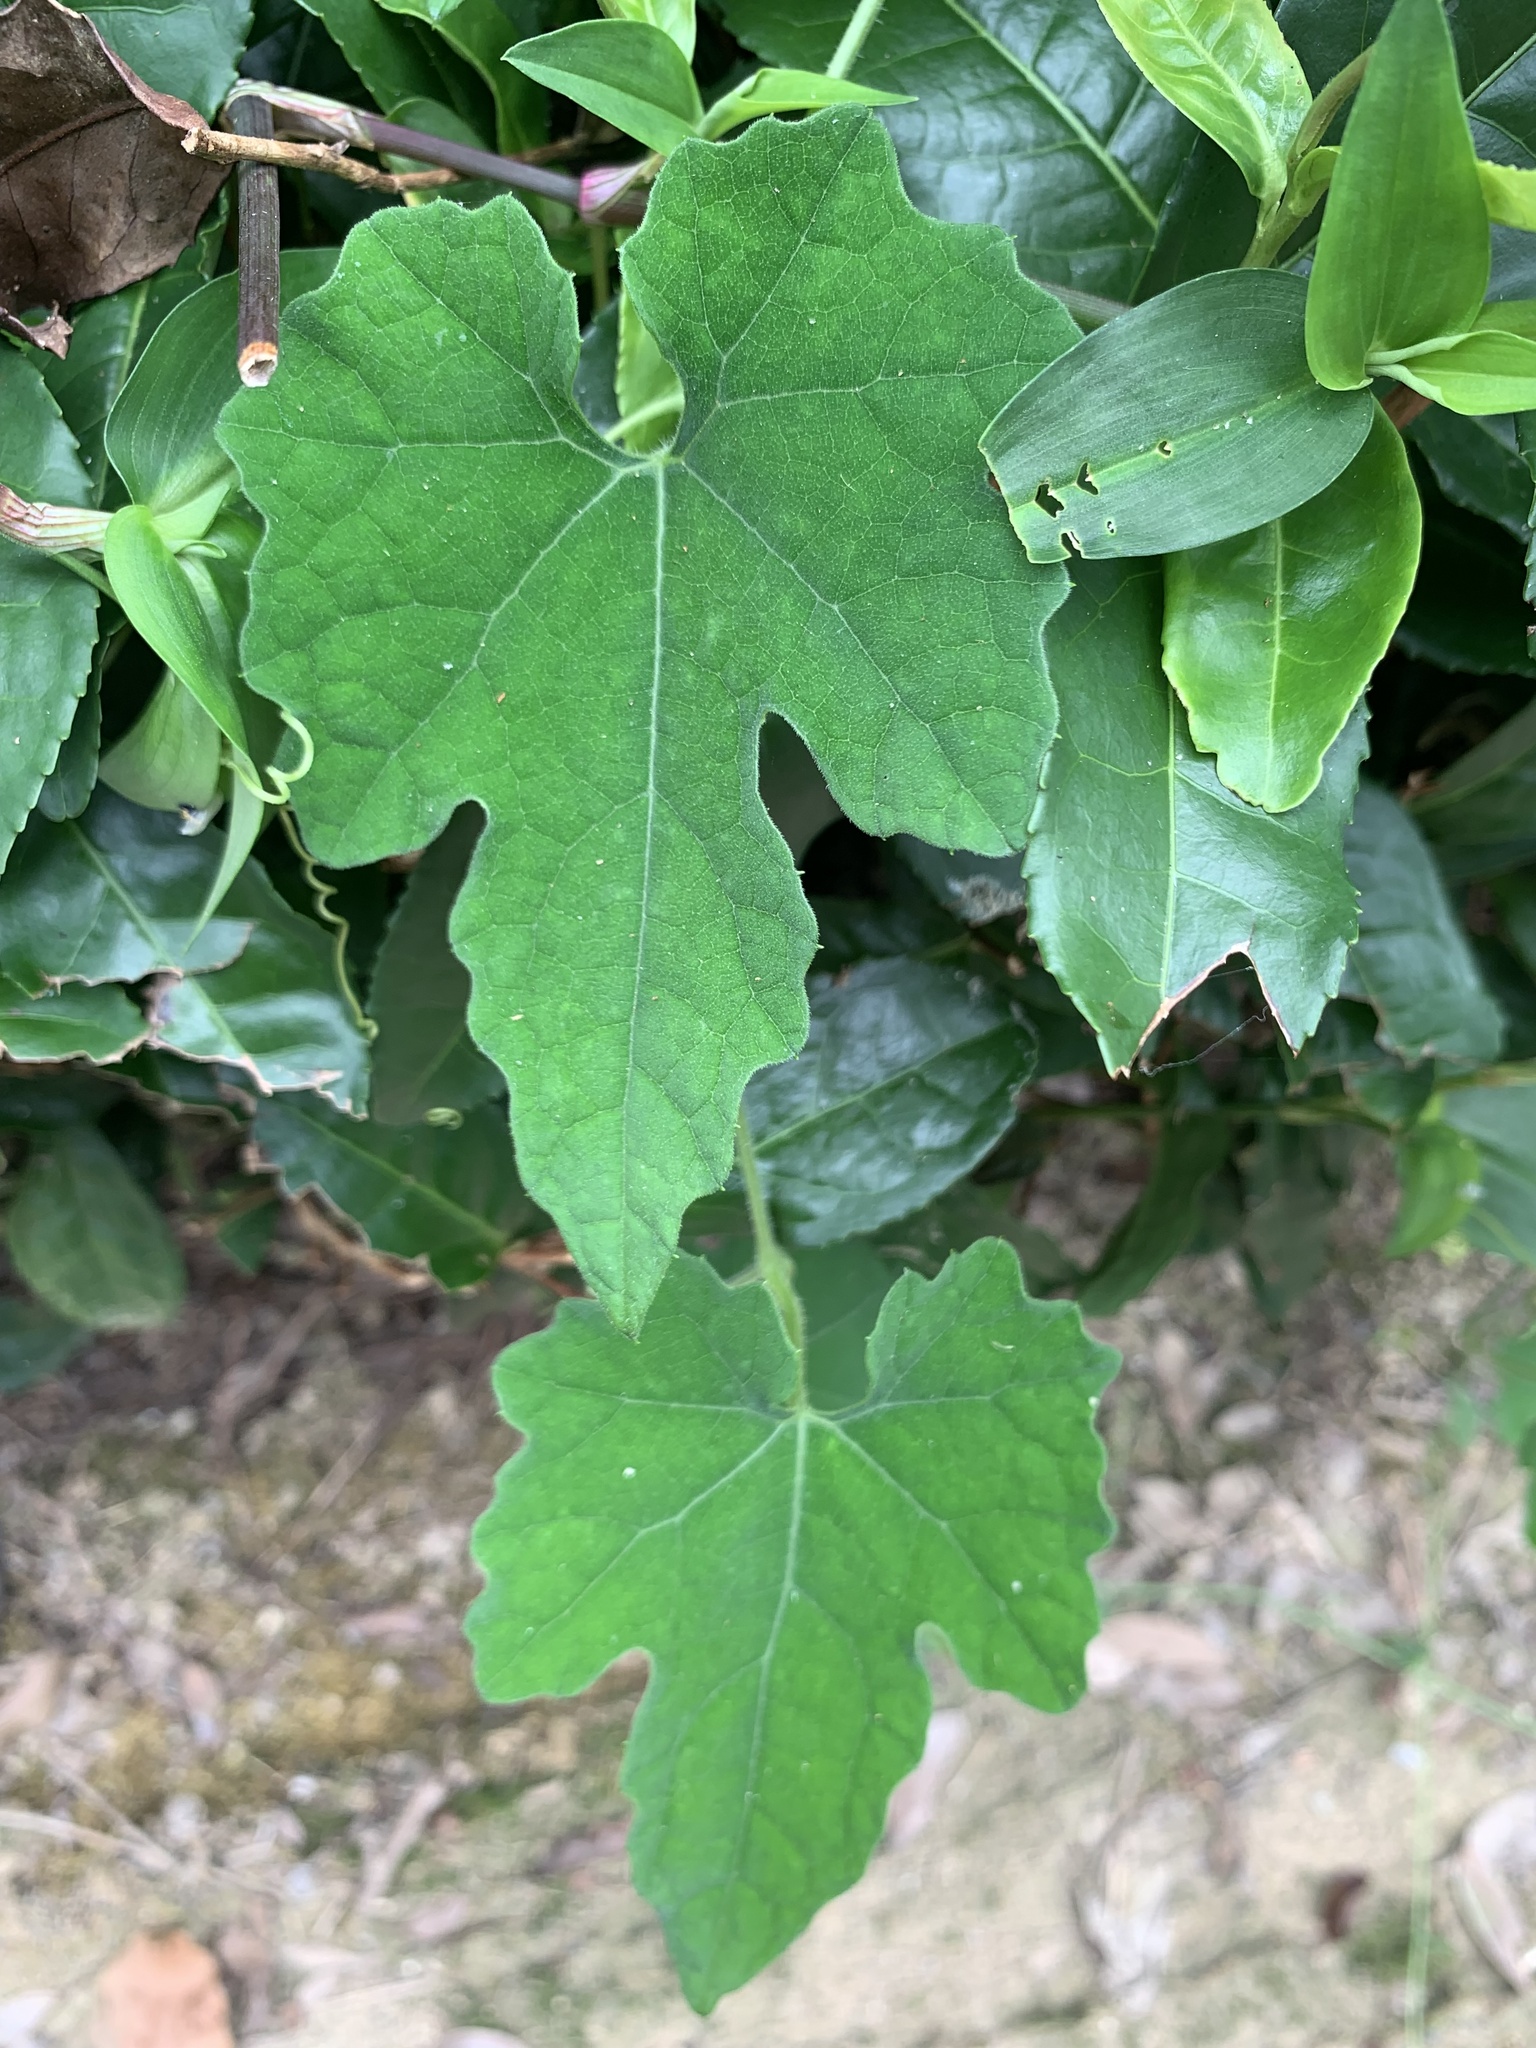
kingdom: Plantae
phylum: Tracheophyta
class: Magnoliopsida
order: Cucurbitales
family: Cucurbitaceae
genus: Trichosanthes
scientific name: Trichosanthes cucumeroides
